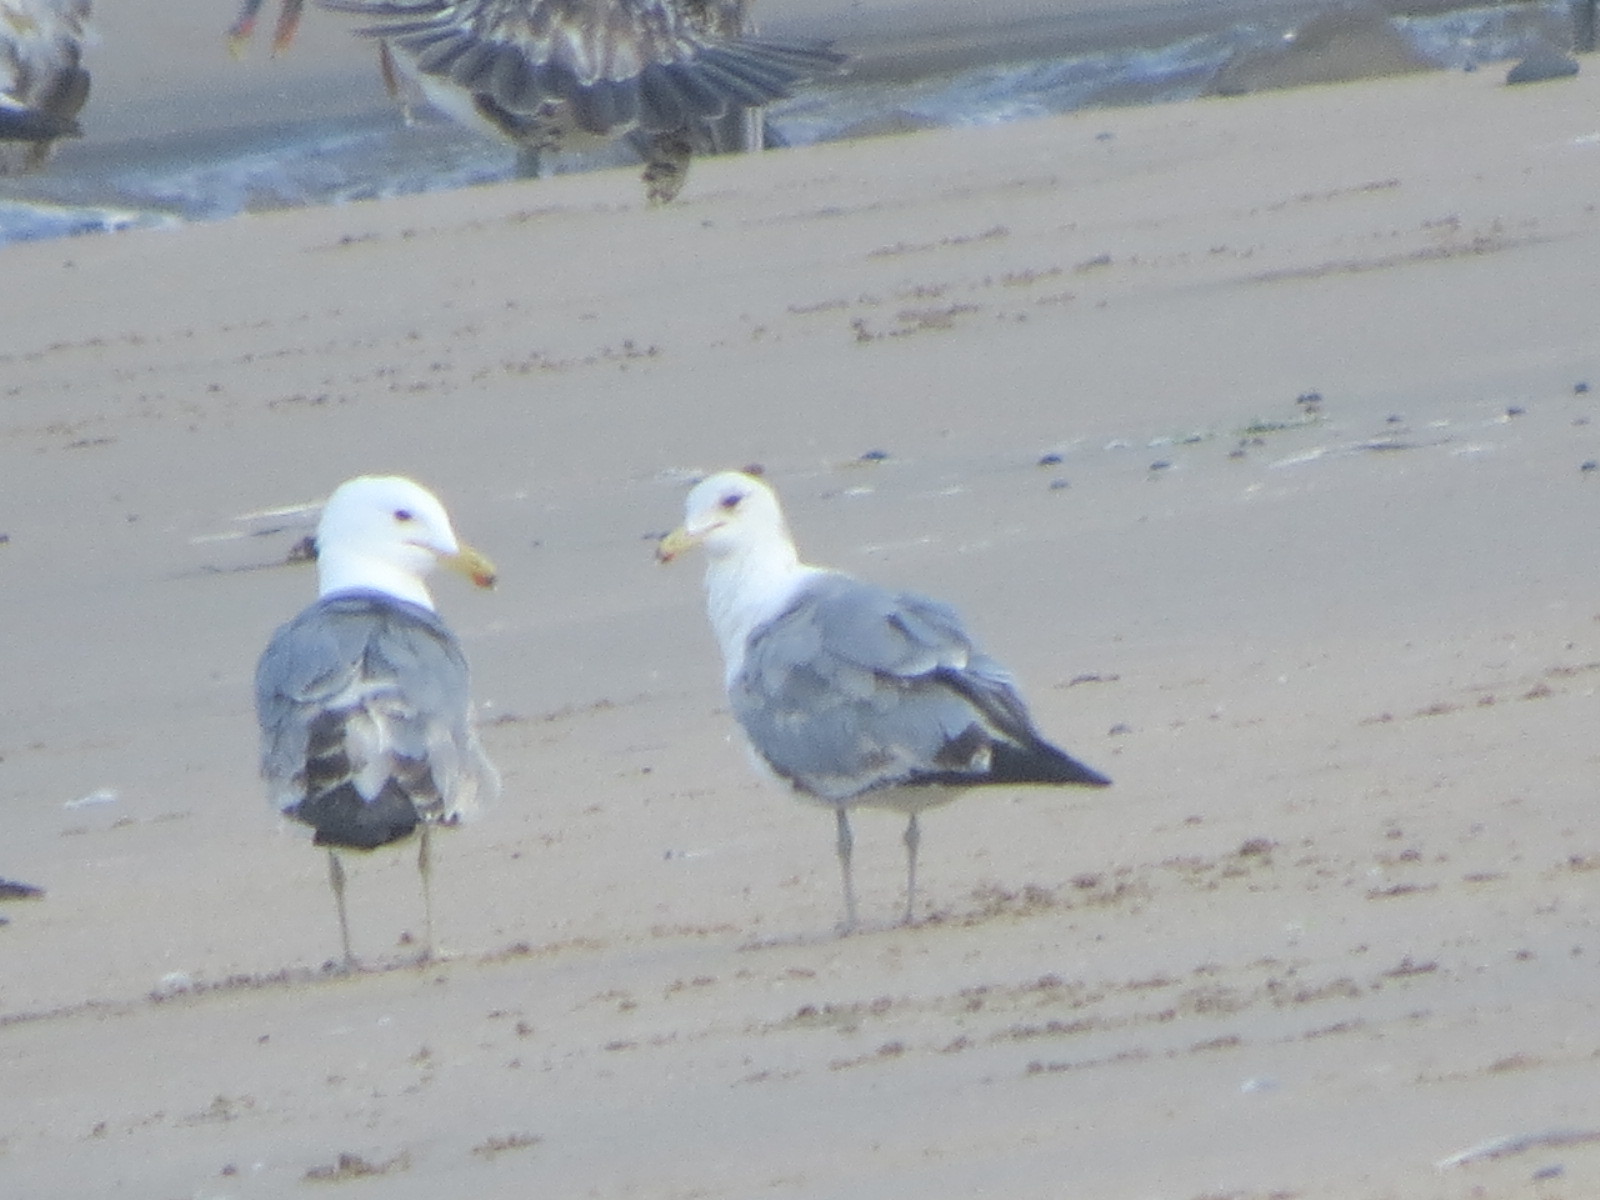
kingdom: Animalia
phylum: Chordata
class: Aves
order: Charadriiformes
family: Laridae
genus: Larus
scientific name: Larus californicus
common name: California gull
